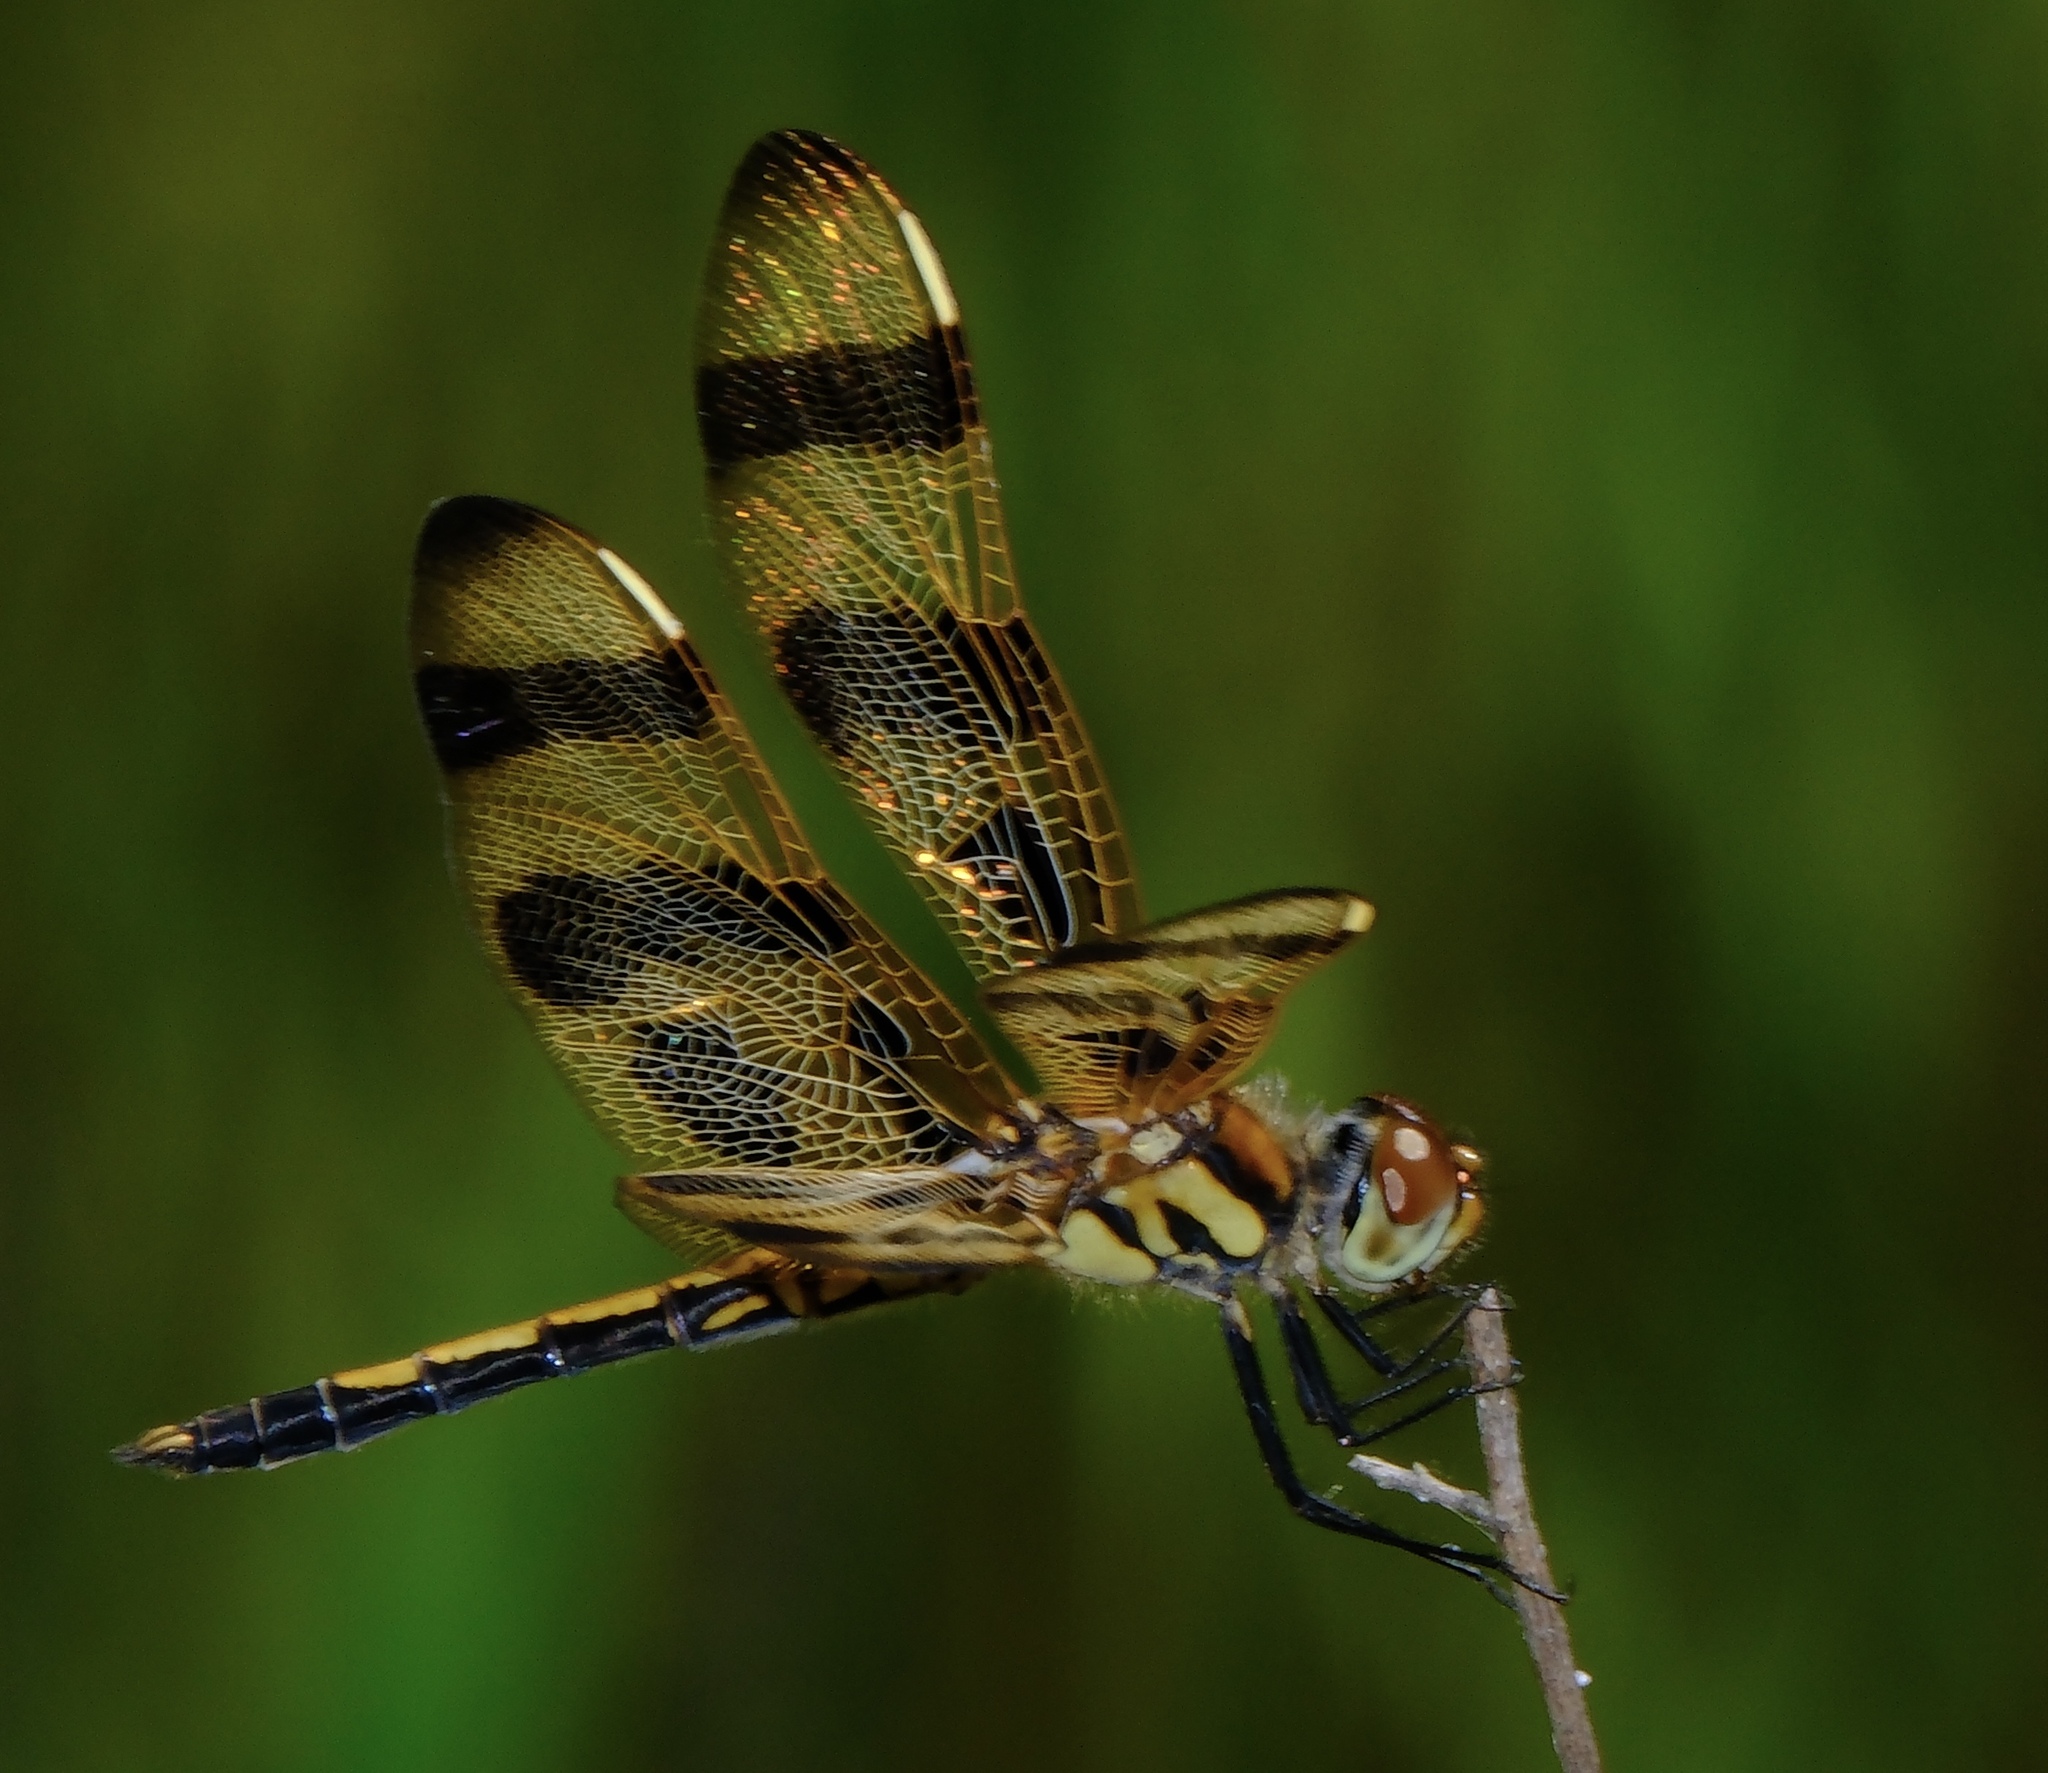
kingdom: Animalia
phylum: Arthropoda
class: Insecta
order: Odonata
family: Libellulidae
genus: Celithemis
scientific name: Celithemis eponina
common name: Halloween pennant
